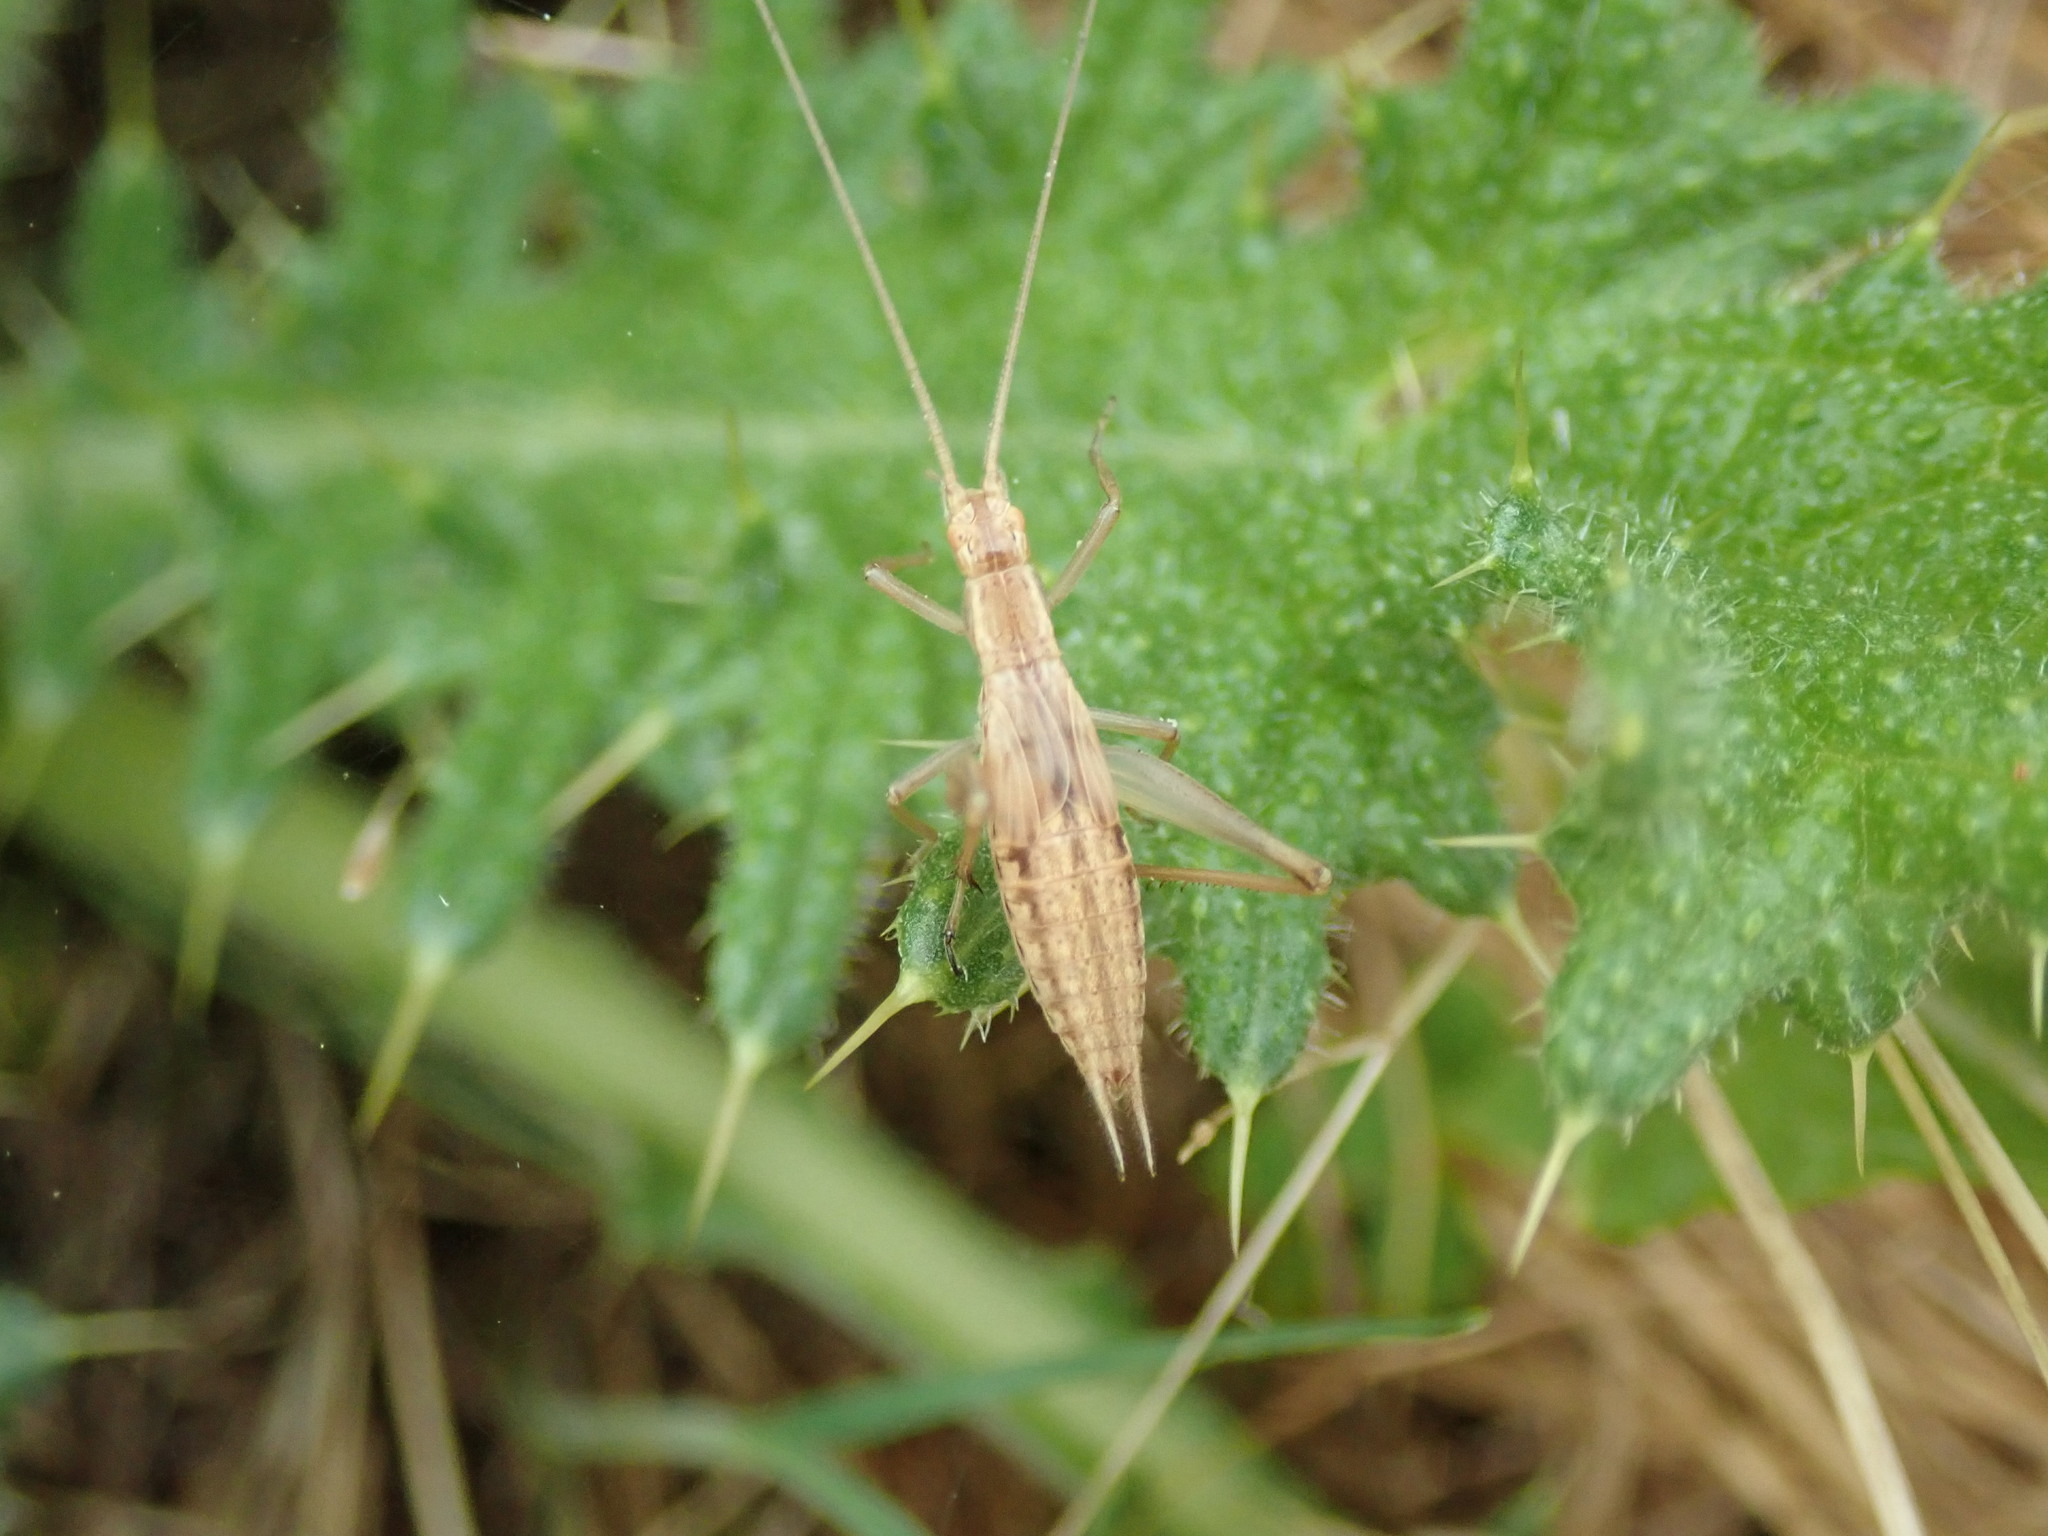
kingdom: Animalia
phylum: Arthropoda
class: Insecta
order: Orthoptera
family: Gryllidae
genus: Oecanthus
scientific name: Oecanthus pellucens
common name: Tree-cricket
